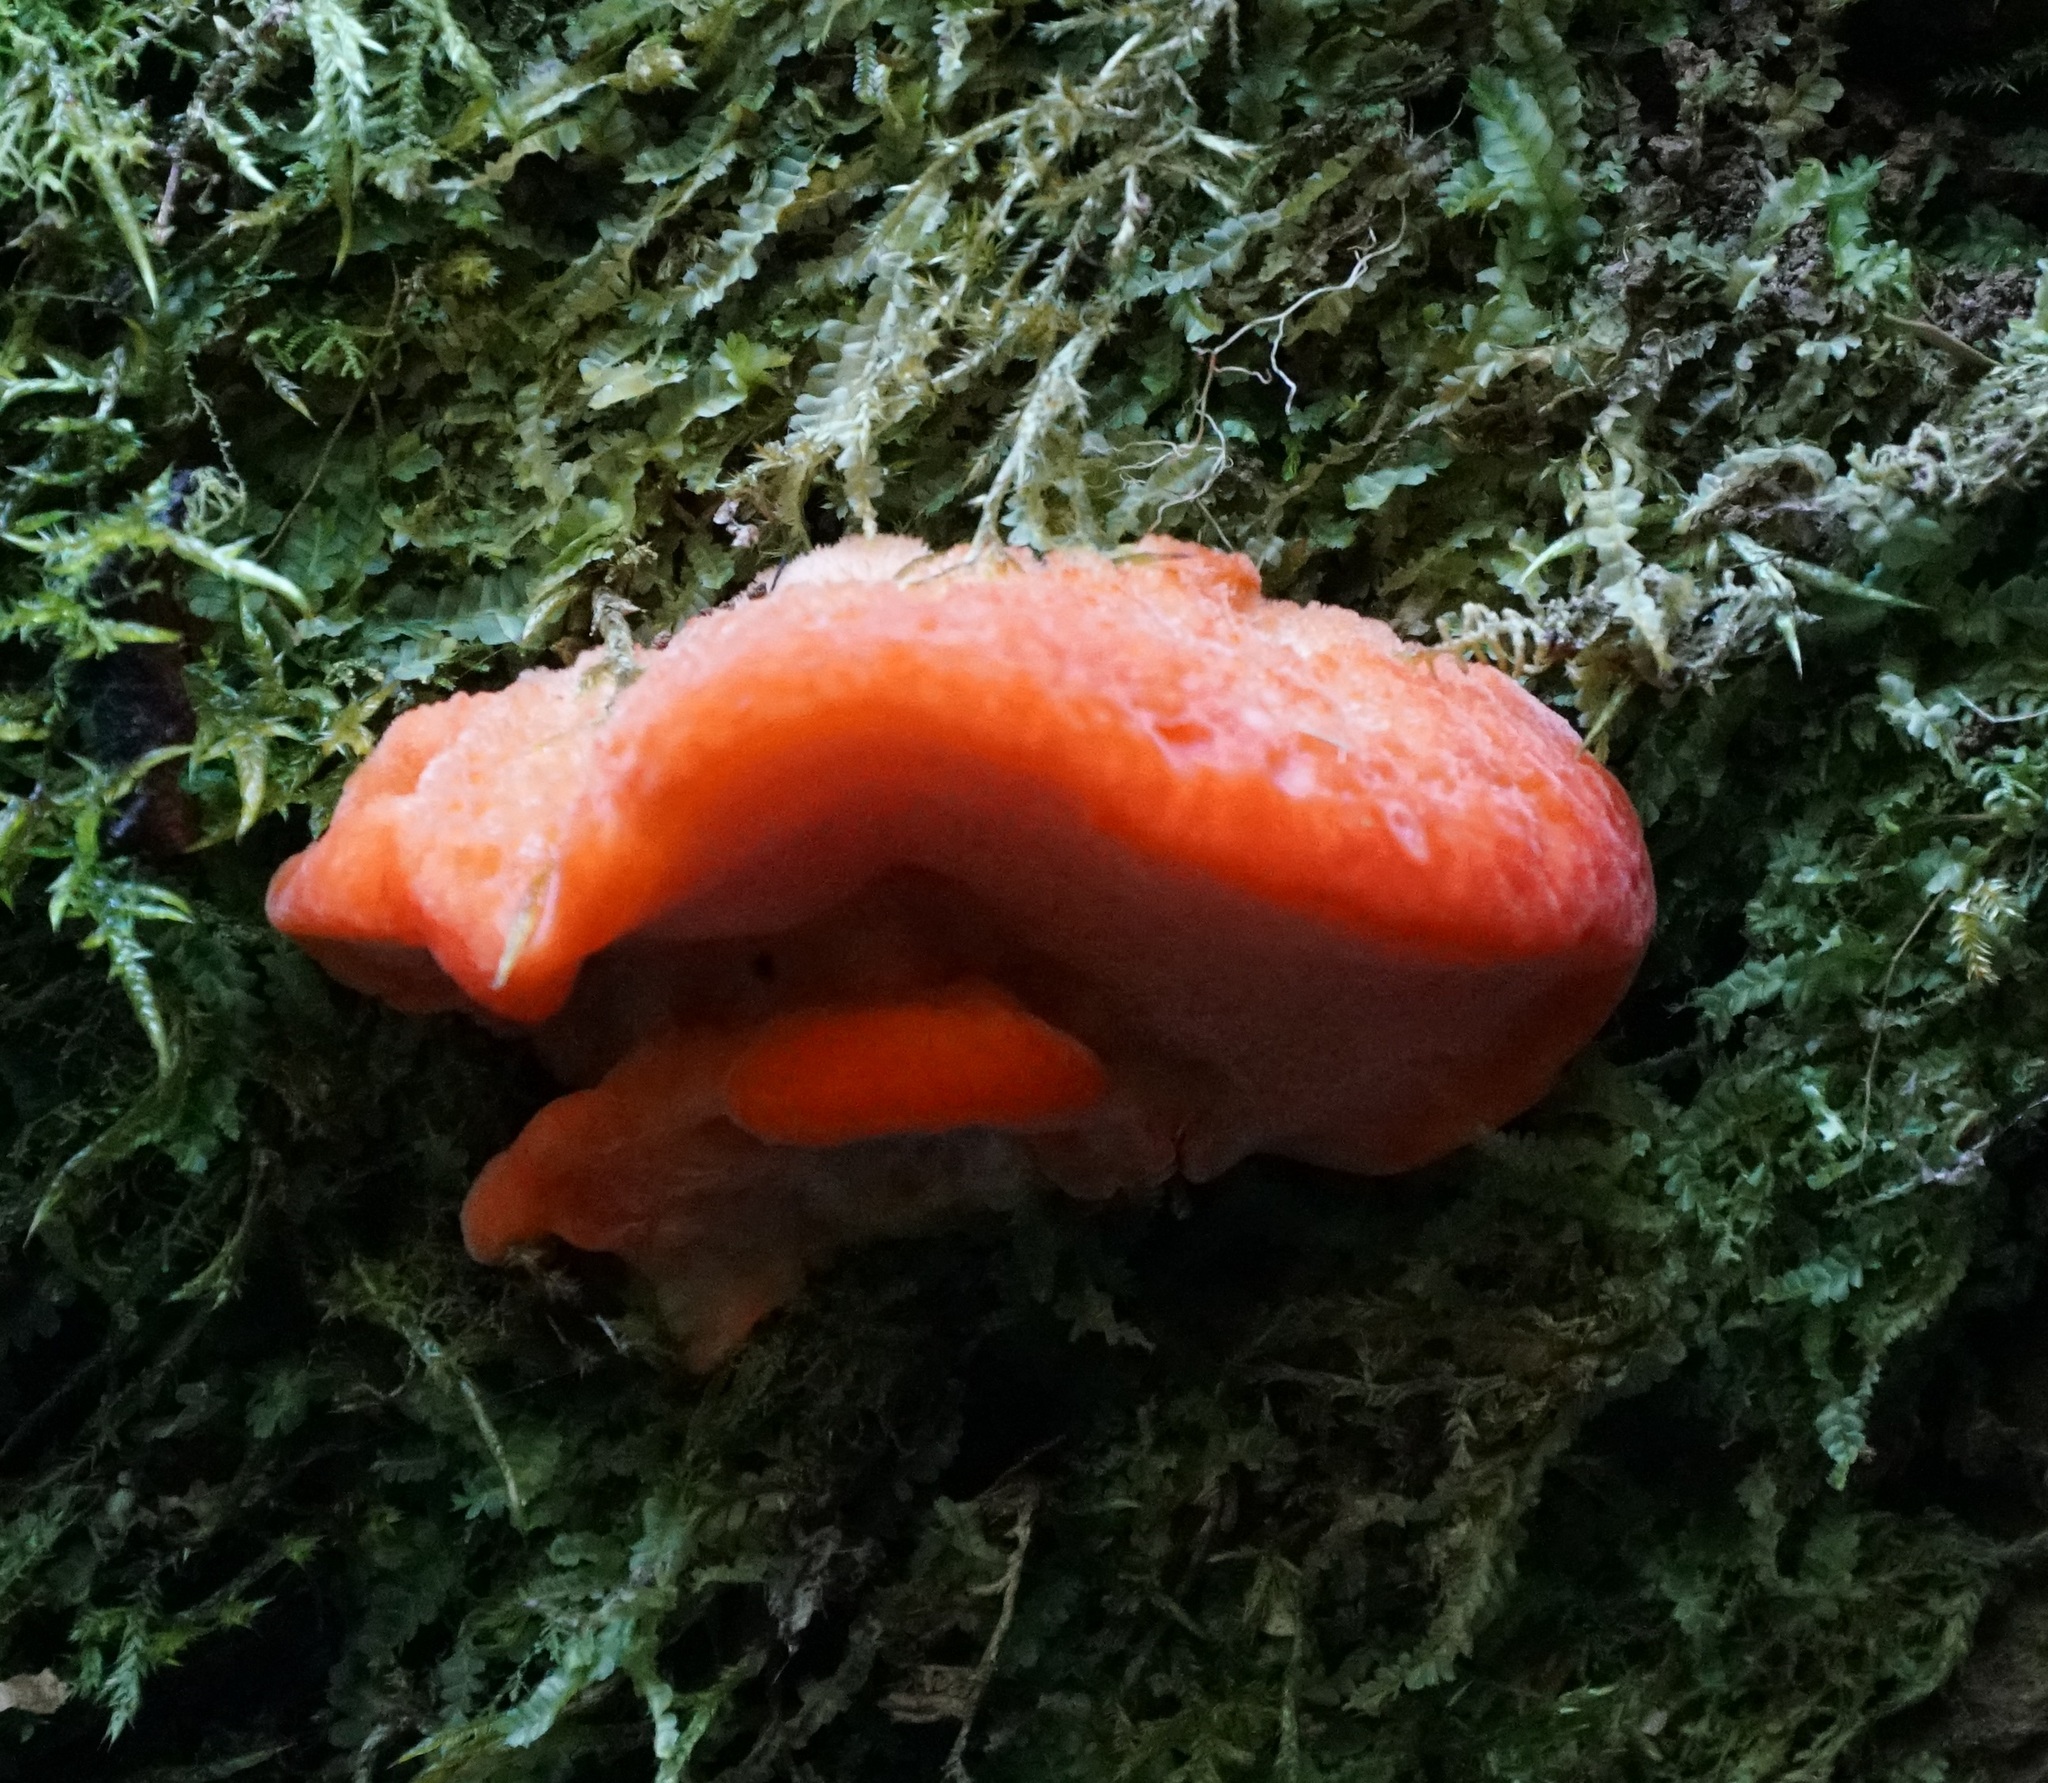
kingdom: Fungi
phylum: Basidiomycota
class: Agaricomycetes
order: Polyporales
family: Incrustoporiaceae
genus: Tyromyces
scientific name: Tyromyces pulcherrimus
